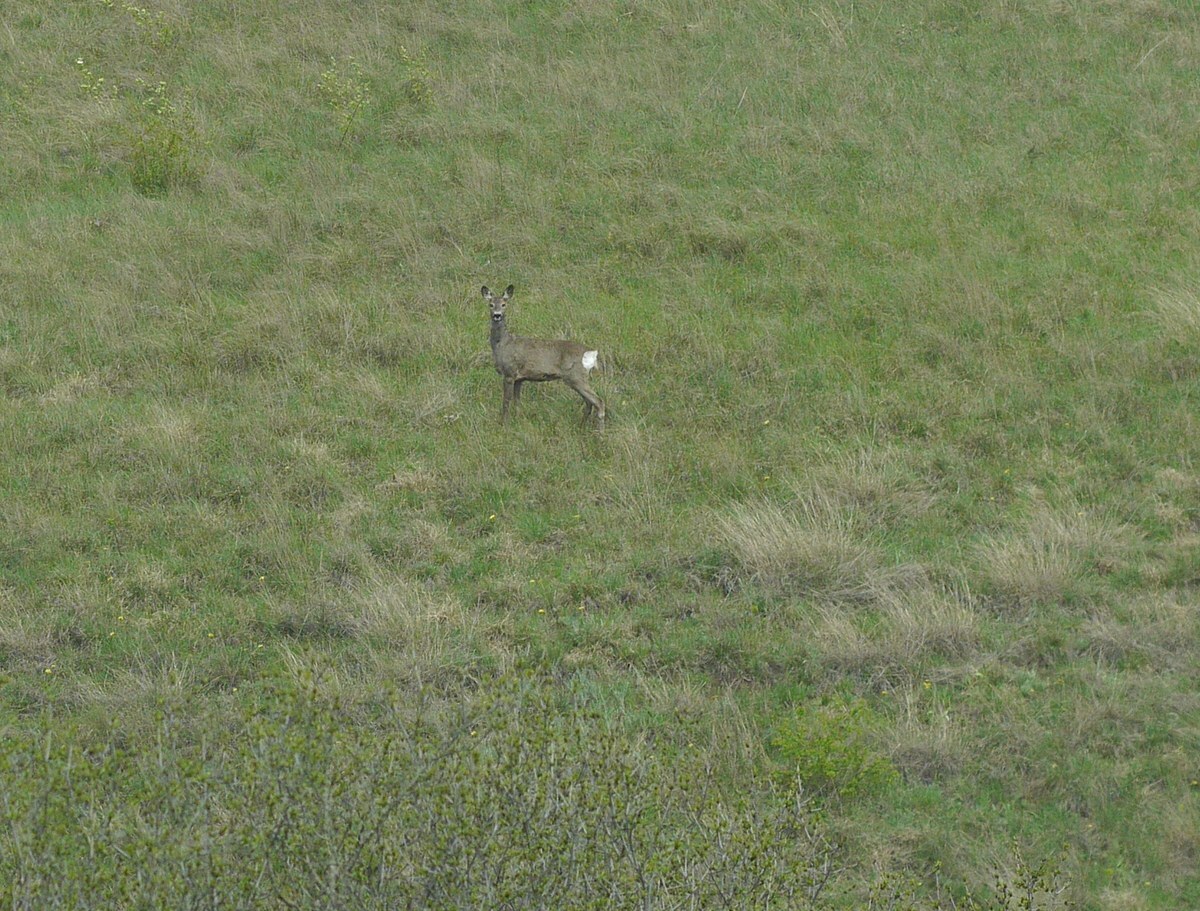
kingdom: Animalia
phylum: Chordata
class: Mammalia
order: Artiodactyla
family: Cervidae
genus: Capreolus
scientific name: Capreolus capreolus
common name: Western roe deer
